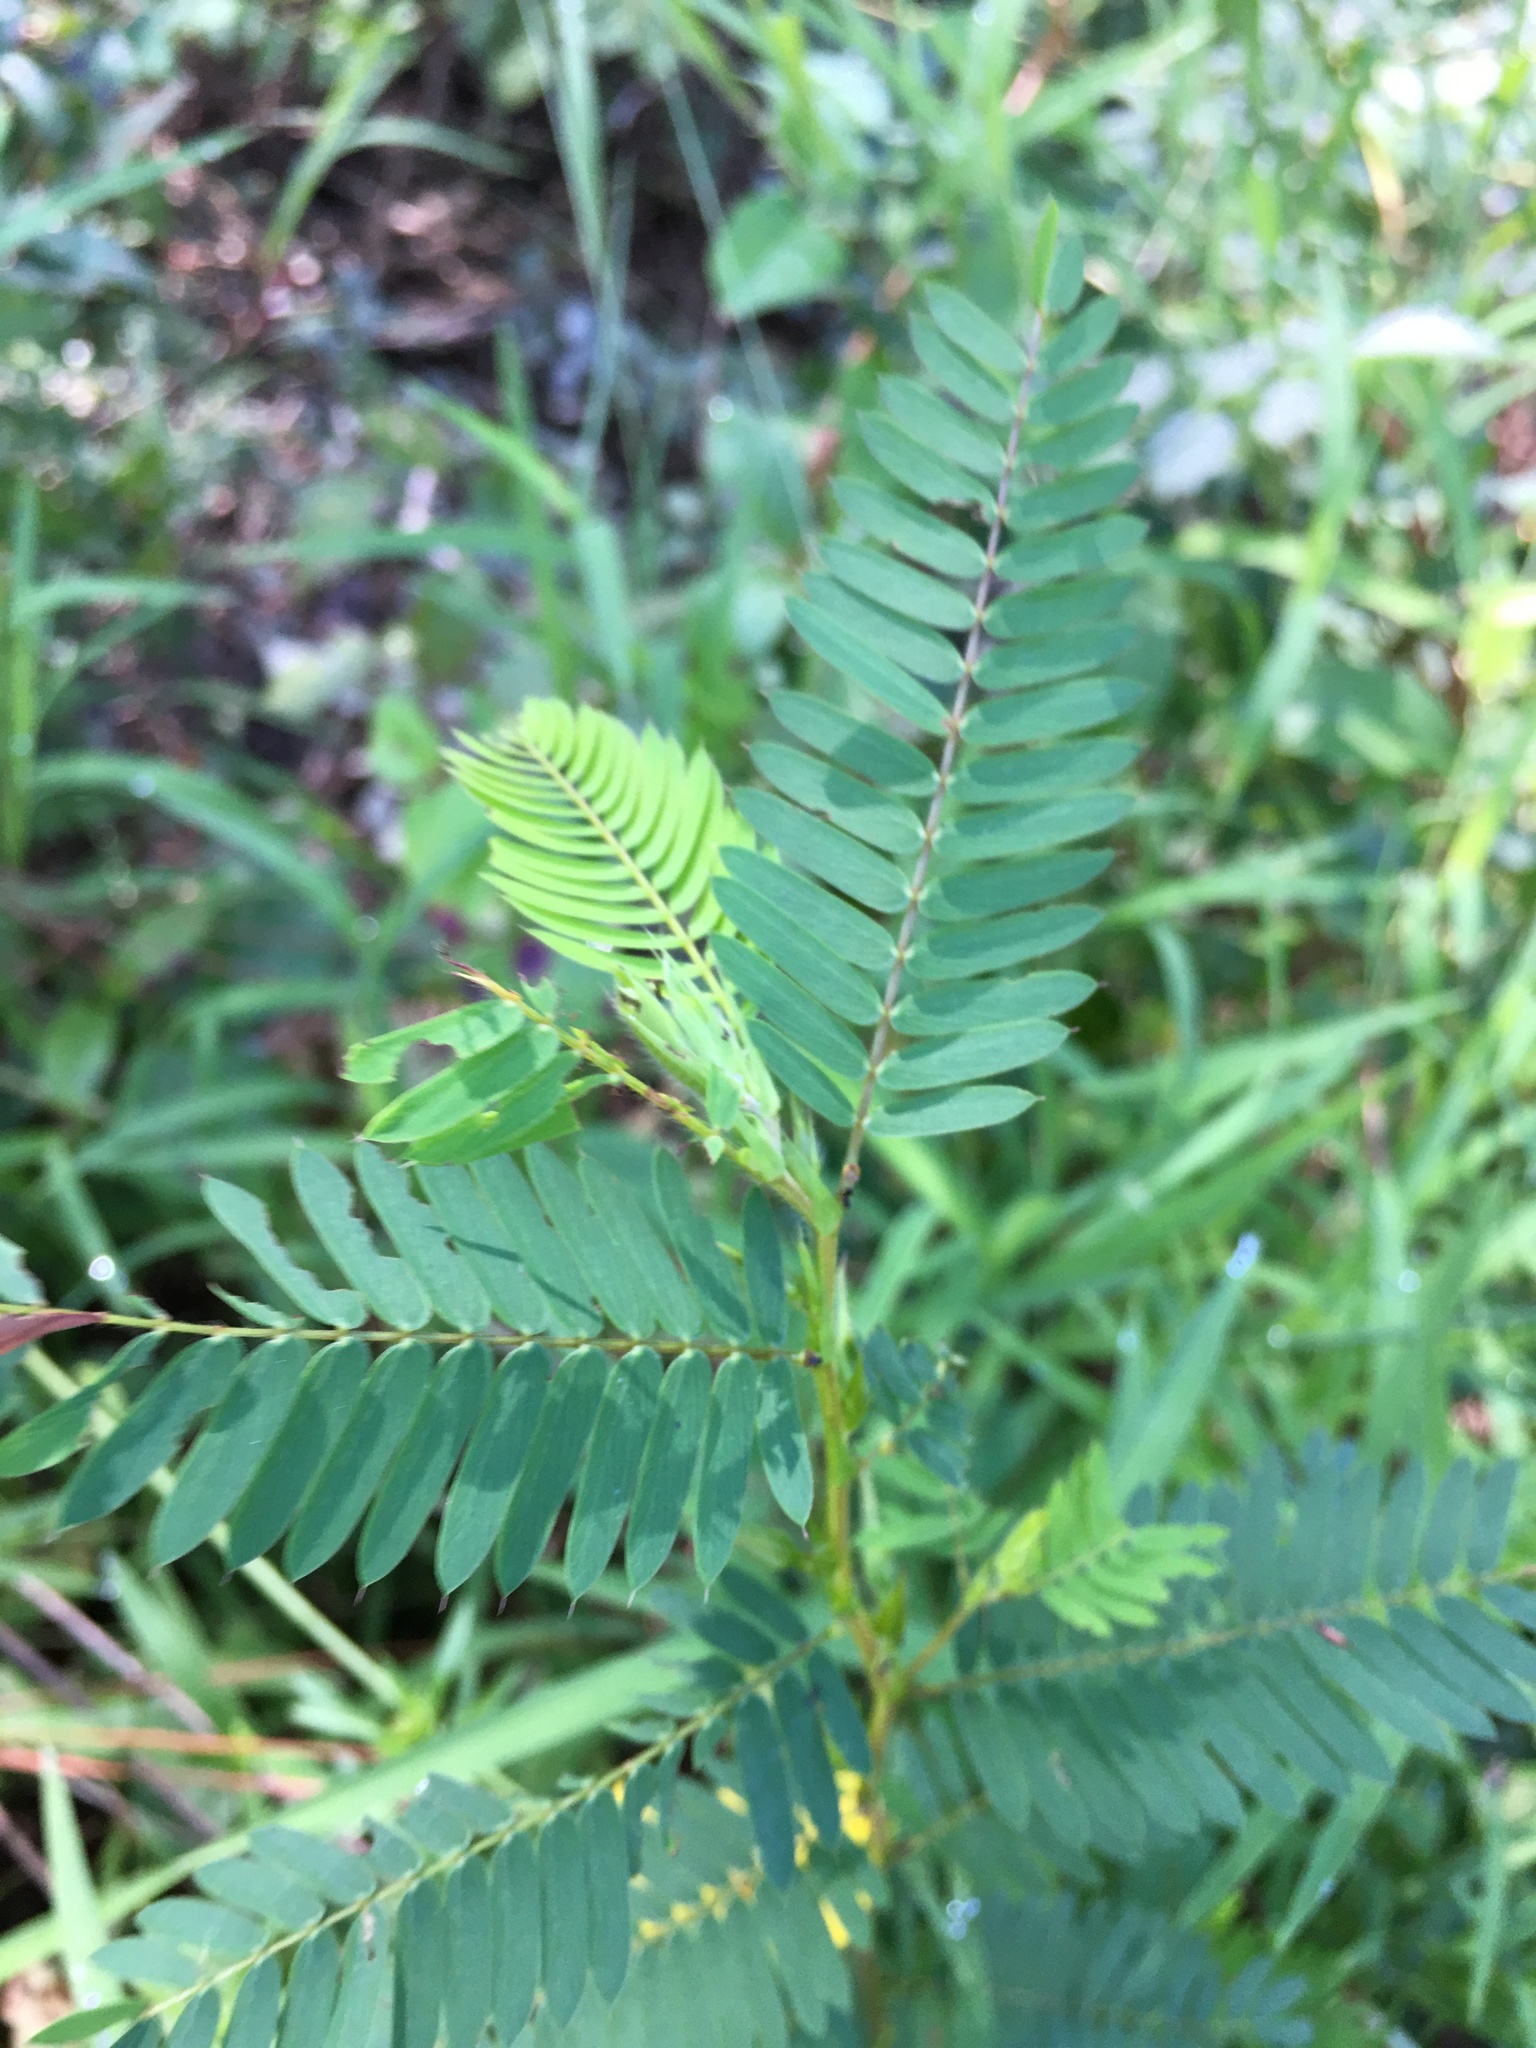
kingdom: Plantae
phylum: Tracheophyta
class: Magnoliopsida
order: Fabales
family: Fabaceae
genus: Chamaecrista
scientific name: Chamaecrista fasciculata
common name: Golden cassia
